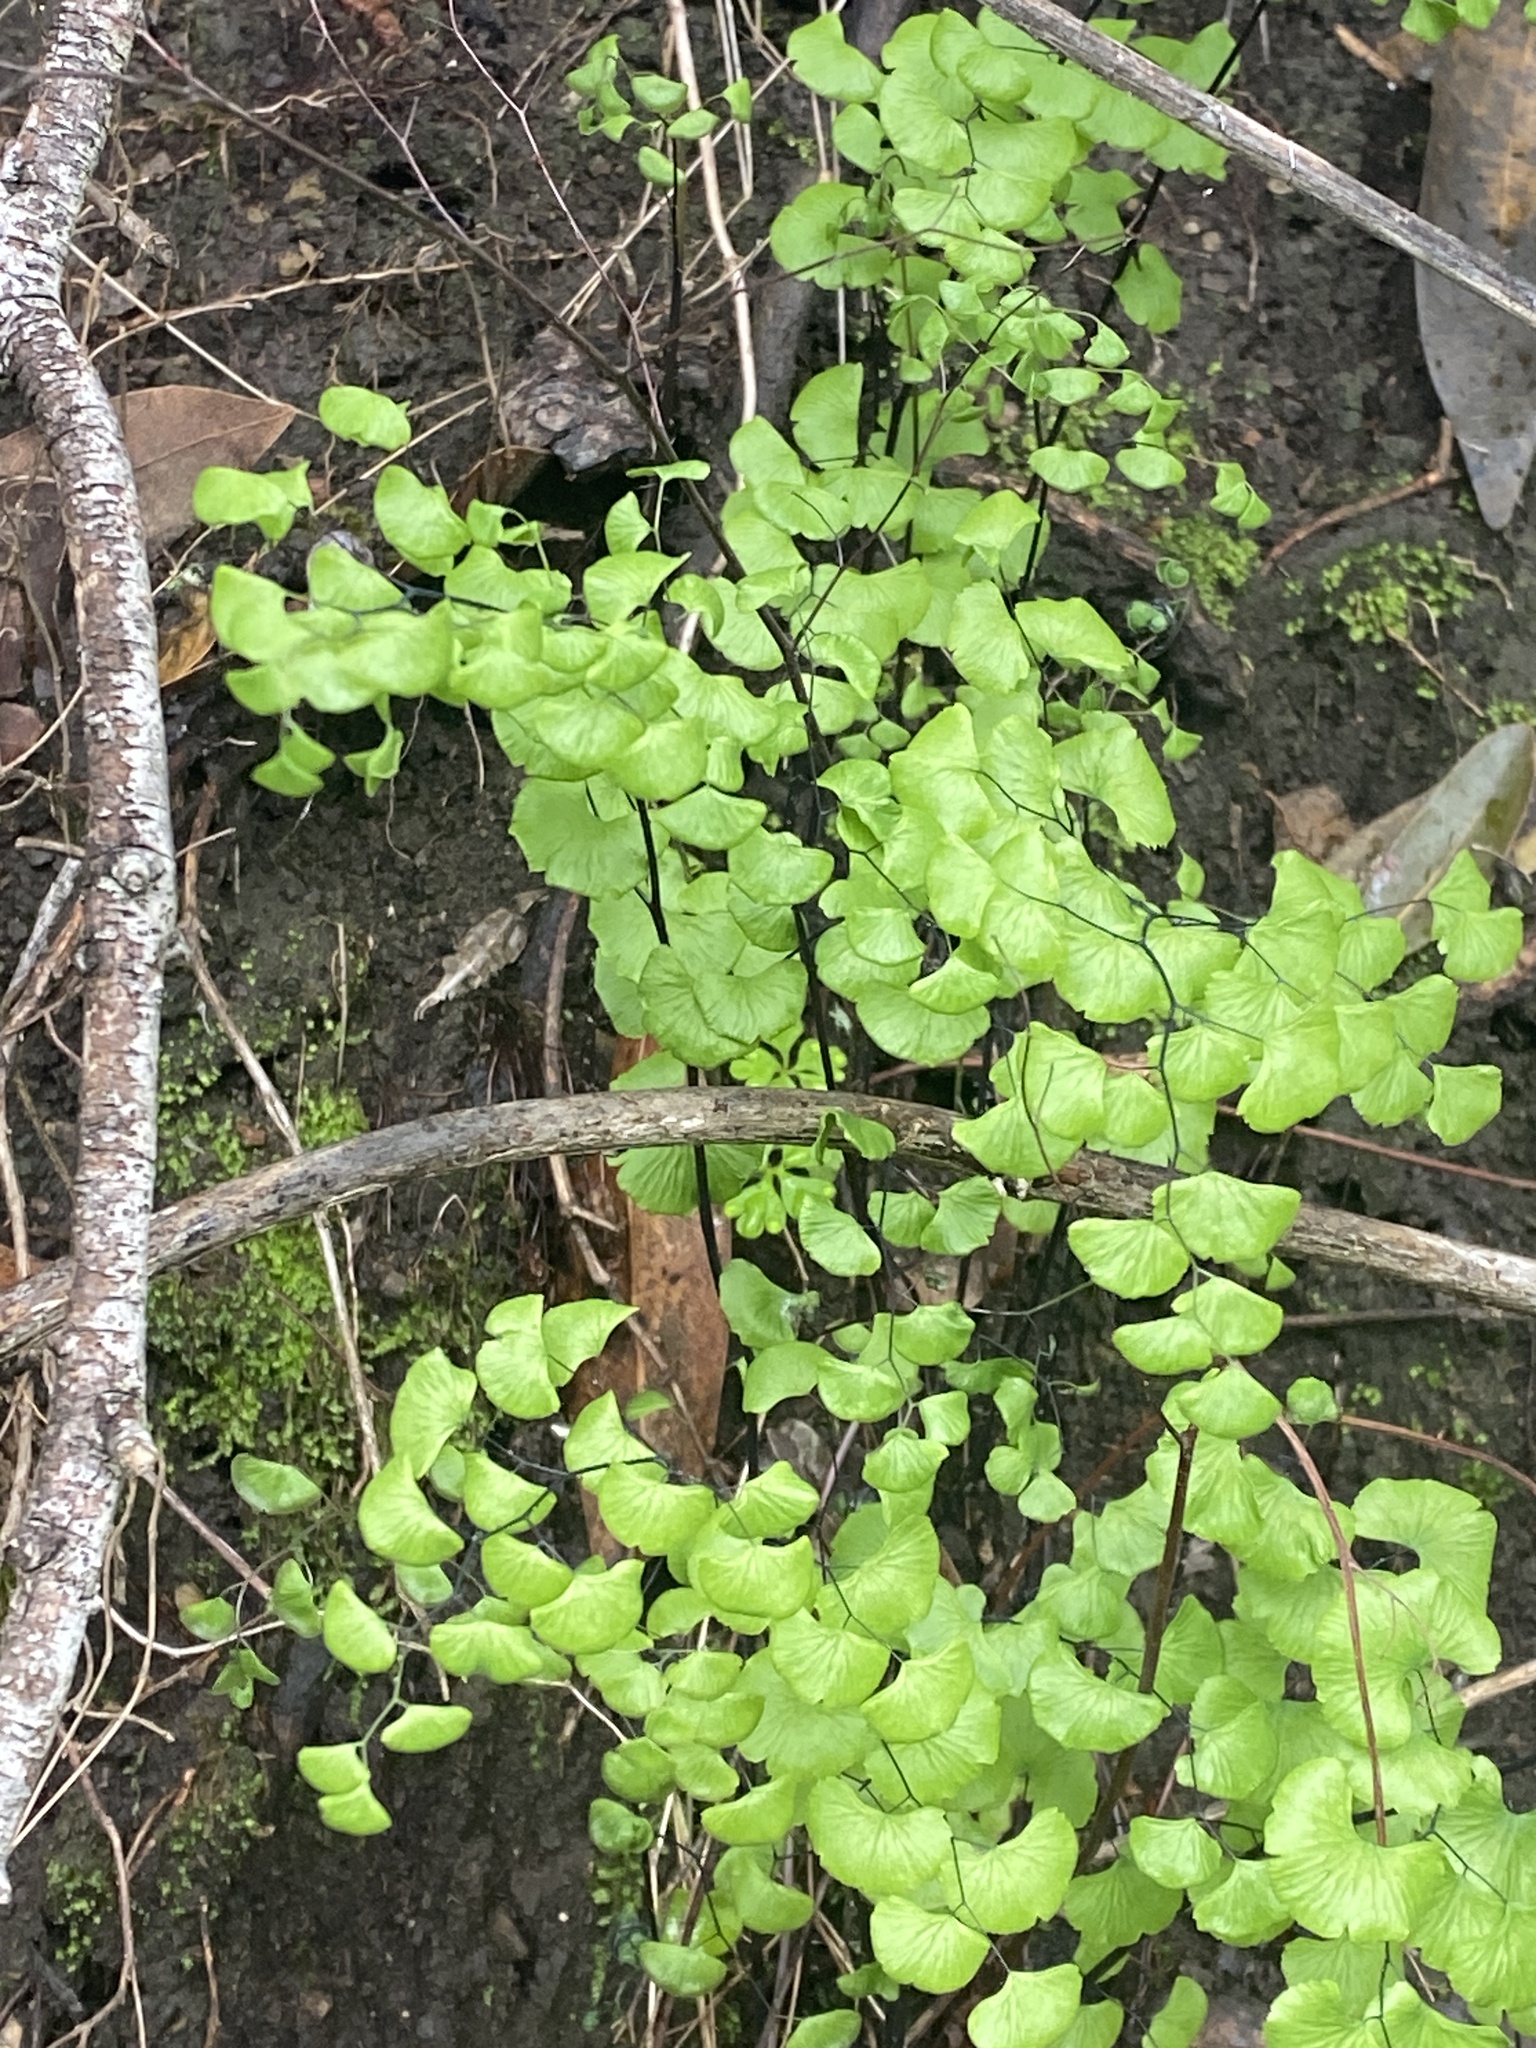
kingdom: Plantae
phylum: Tracheophyta
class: Polypodiopsida
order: Polypodiales
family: Pteridaceae
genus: Adiantum
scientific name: Adiantum jordanii
